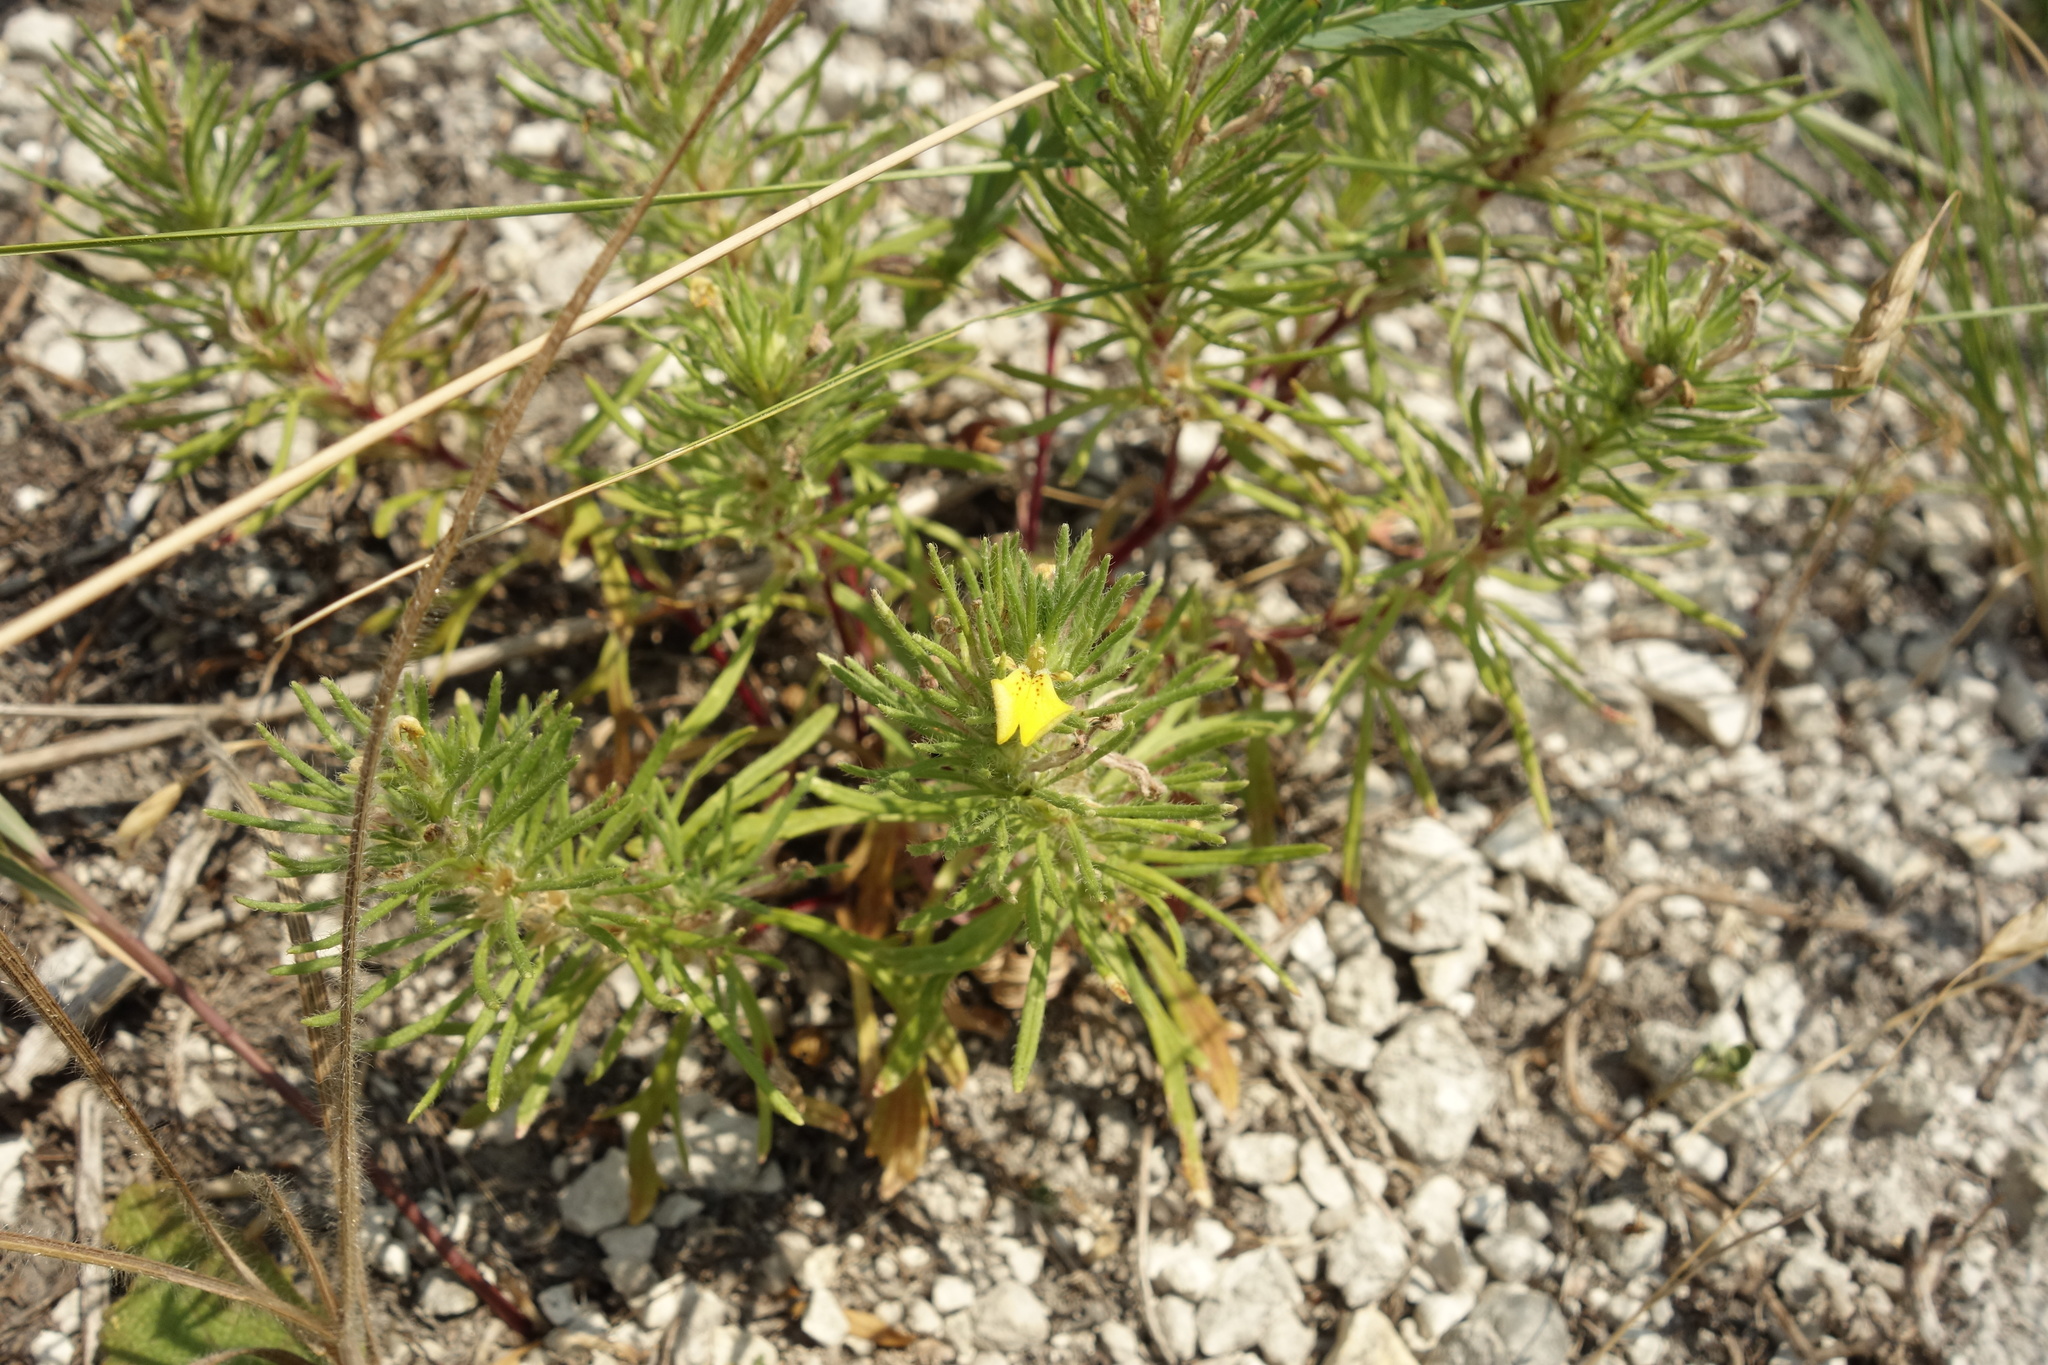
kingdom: Plantae
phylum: Tracheophyta
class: Magnoliopsida
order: Lamiales
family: Lamiaceae
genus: Ajuga
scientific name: Ajuga chamaepitys
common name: Ground-pine
